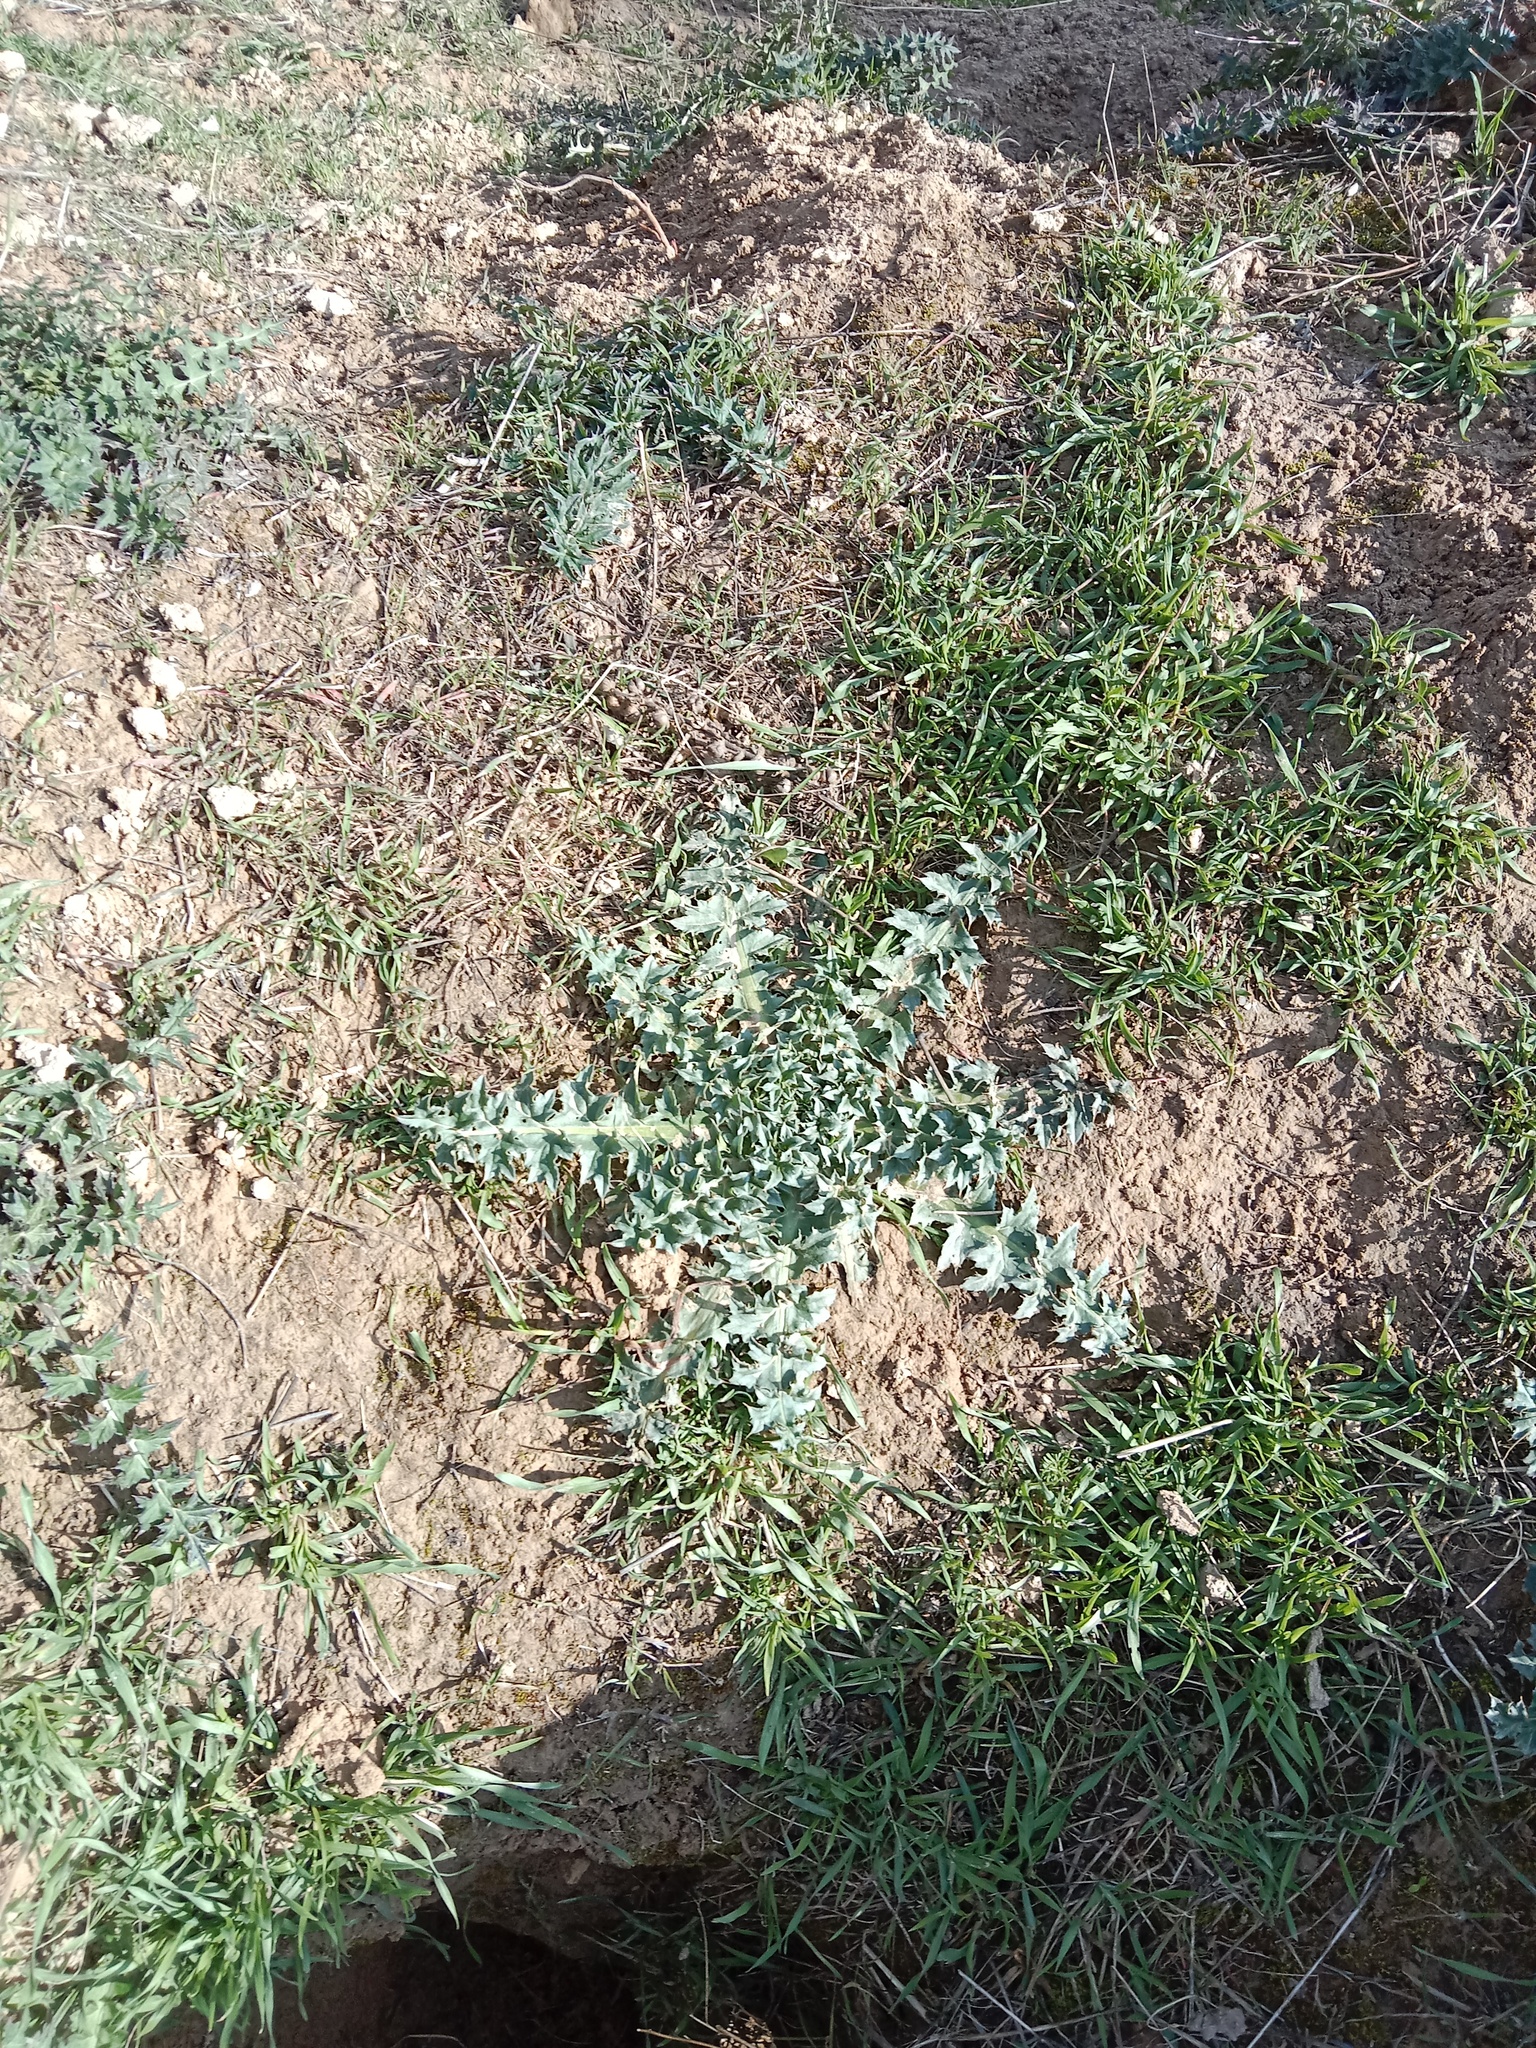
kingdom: Plantae
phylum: Tracheophyta
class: Magnoliopsida
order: Asterales
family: Asteraceae
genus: Carduus
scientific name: Carduus acanthoides
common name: Plumeless thistle
